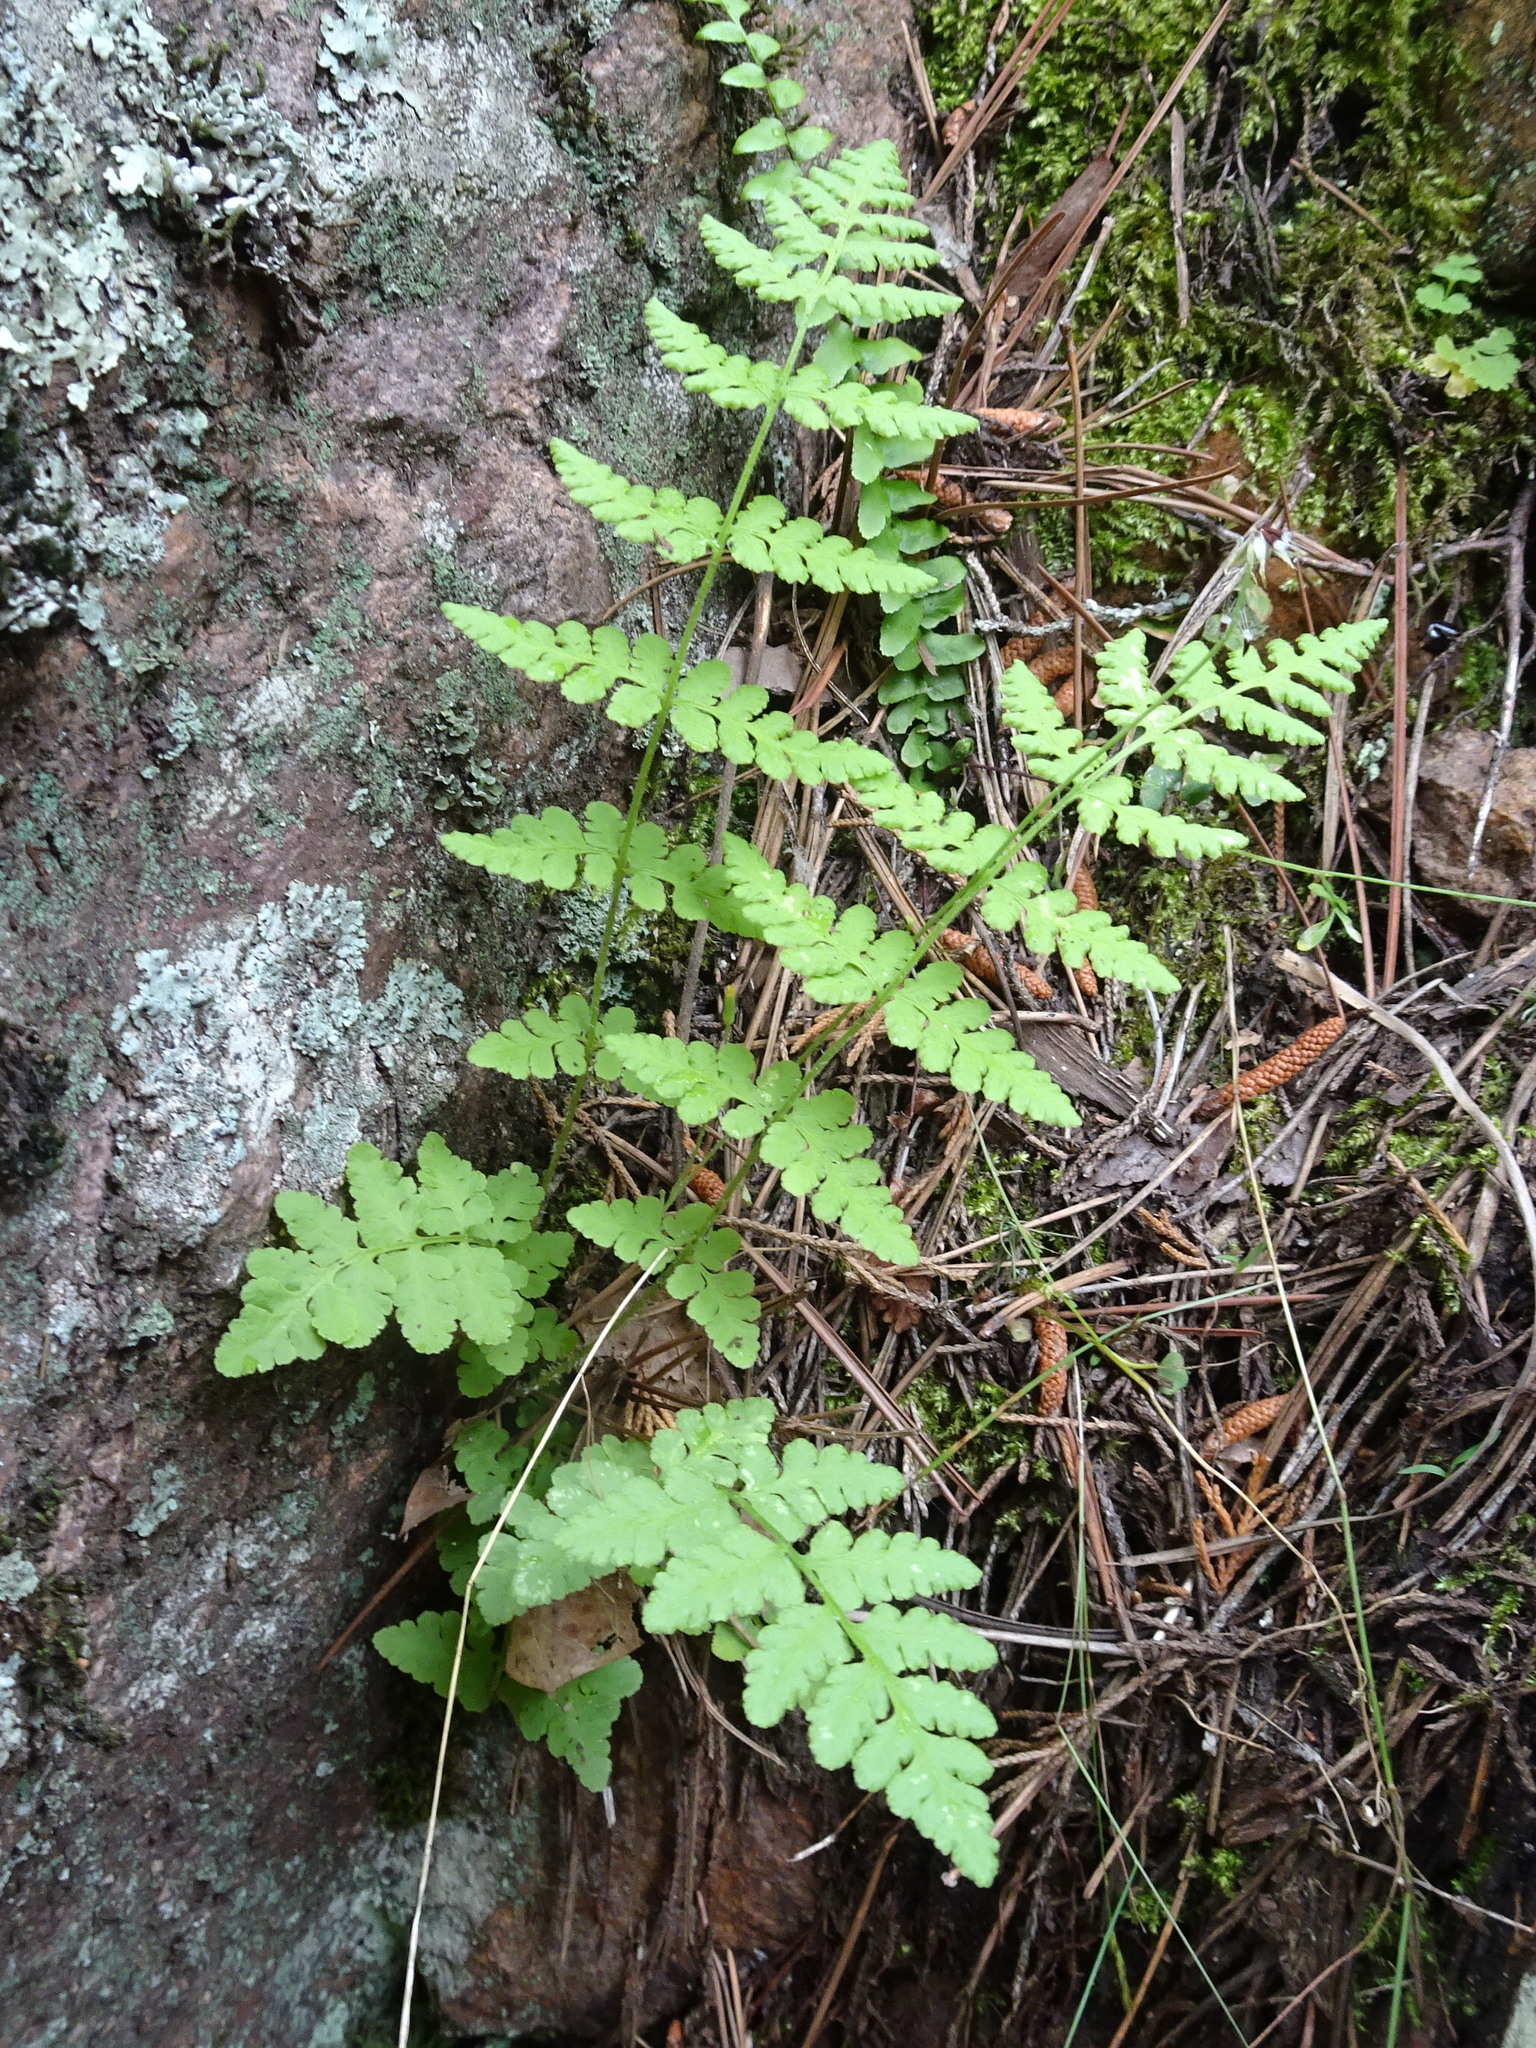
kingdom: Plantae
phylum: Tracheophyta
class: Polypodiopsida
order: Polypodiales
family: Woodsiaceae
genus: Physematium
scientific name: Physematium obtusum
